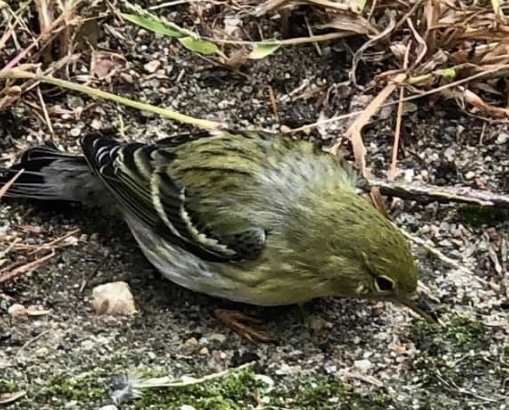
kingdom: Animalia
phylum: Chordata
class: Aves
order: Passeriformes
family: Parulidae
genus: Setophaga
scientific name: Setophaga striata
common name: Blackpoll warbler
